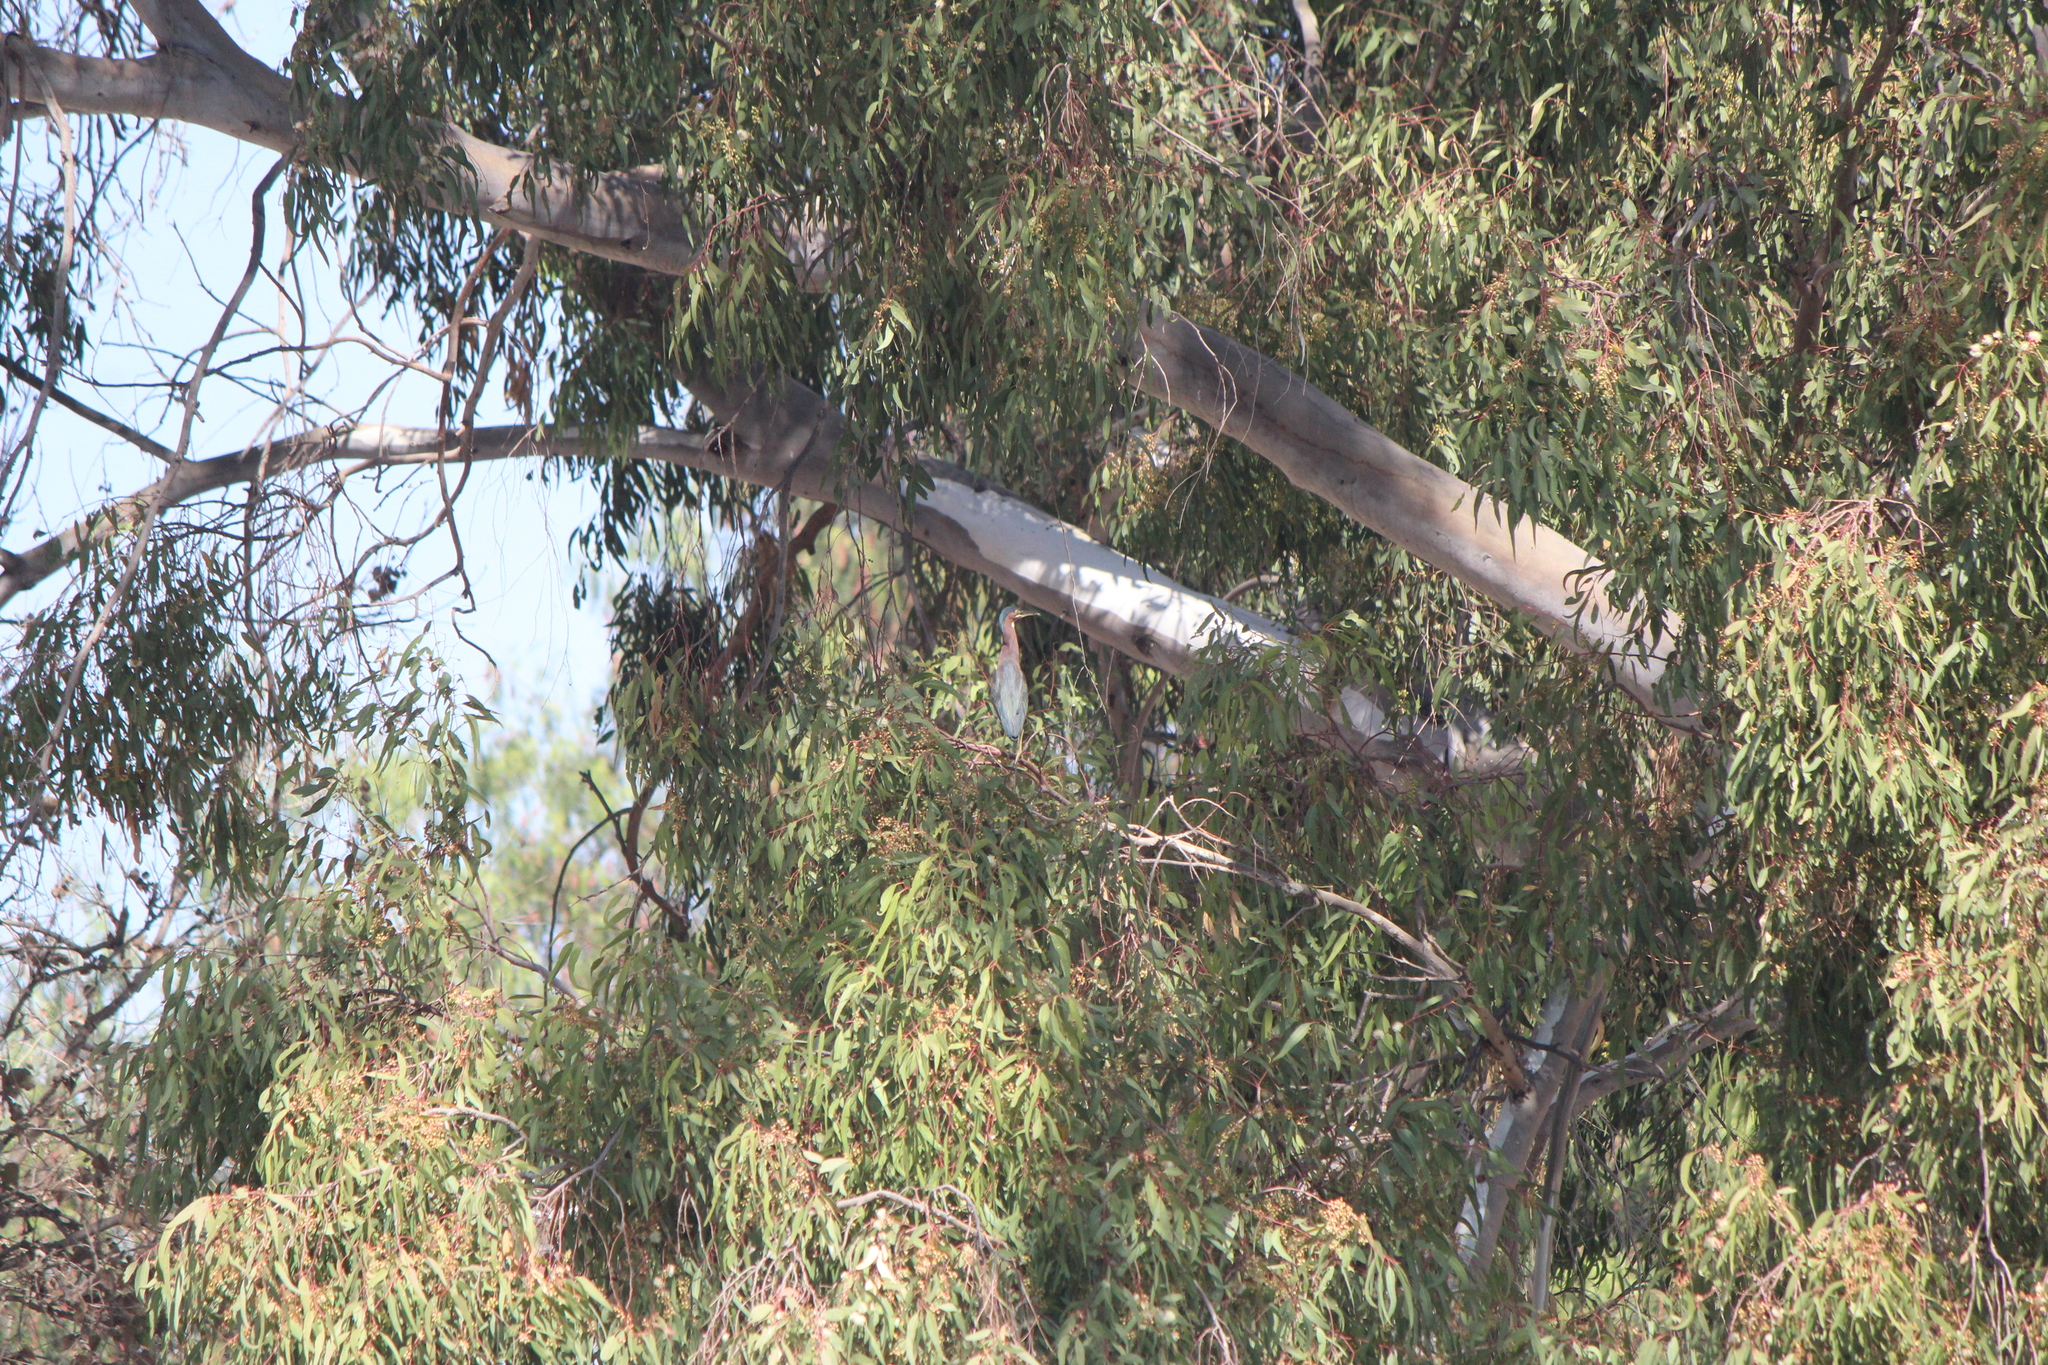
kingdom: Animalia
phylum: Chordata
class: Aves
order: Pelecaniformes
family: Ardeidae
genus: Butorides
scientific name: Butorides virescens
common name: Green heron
